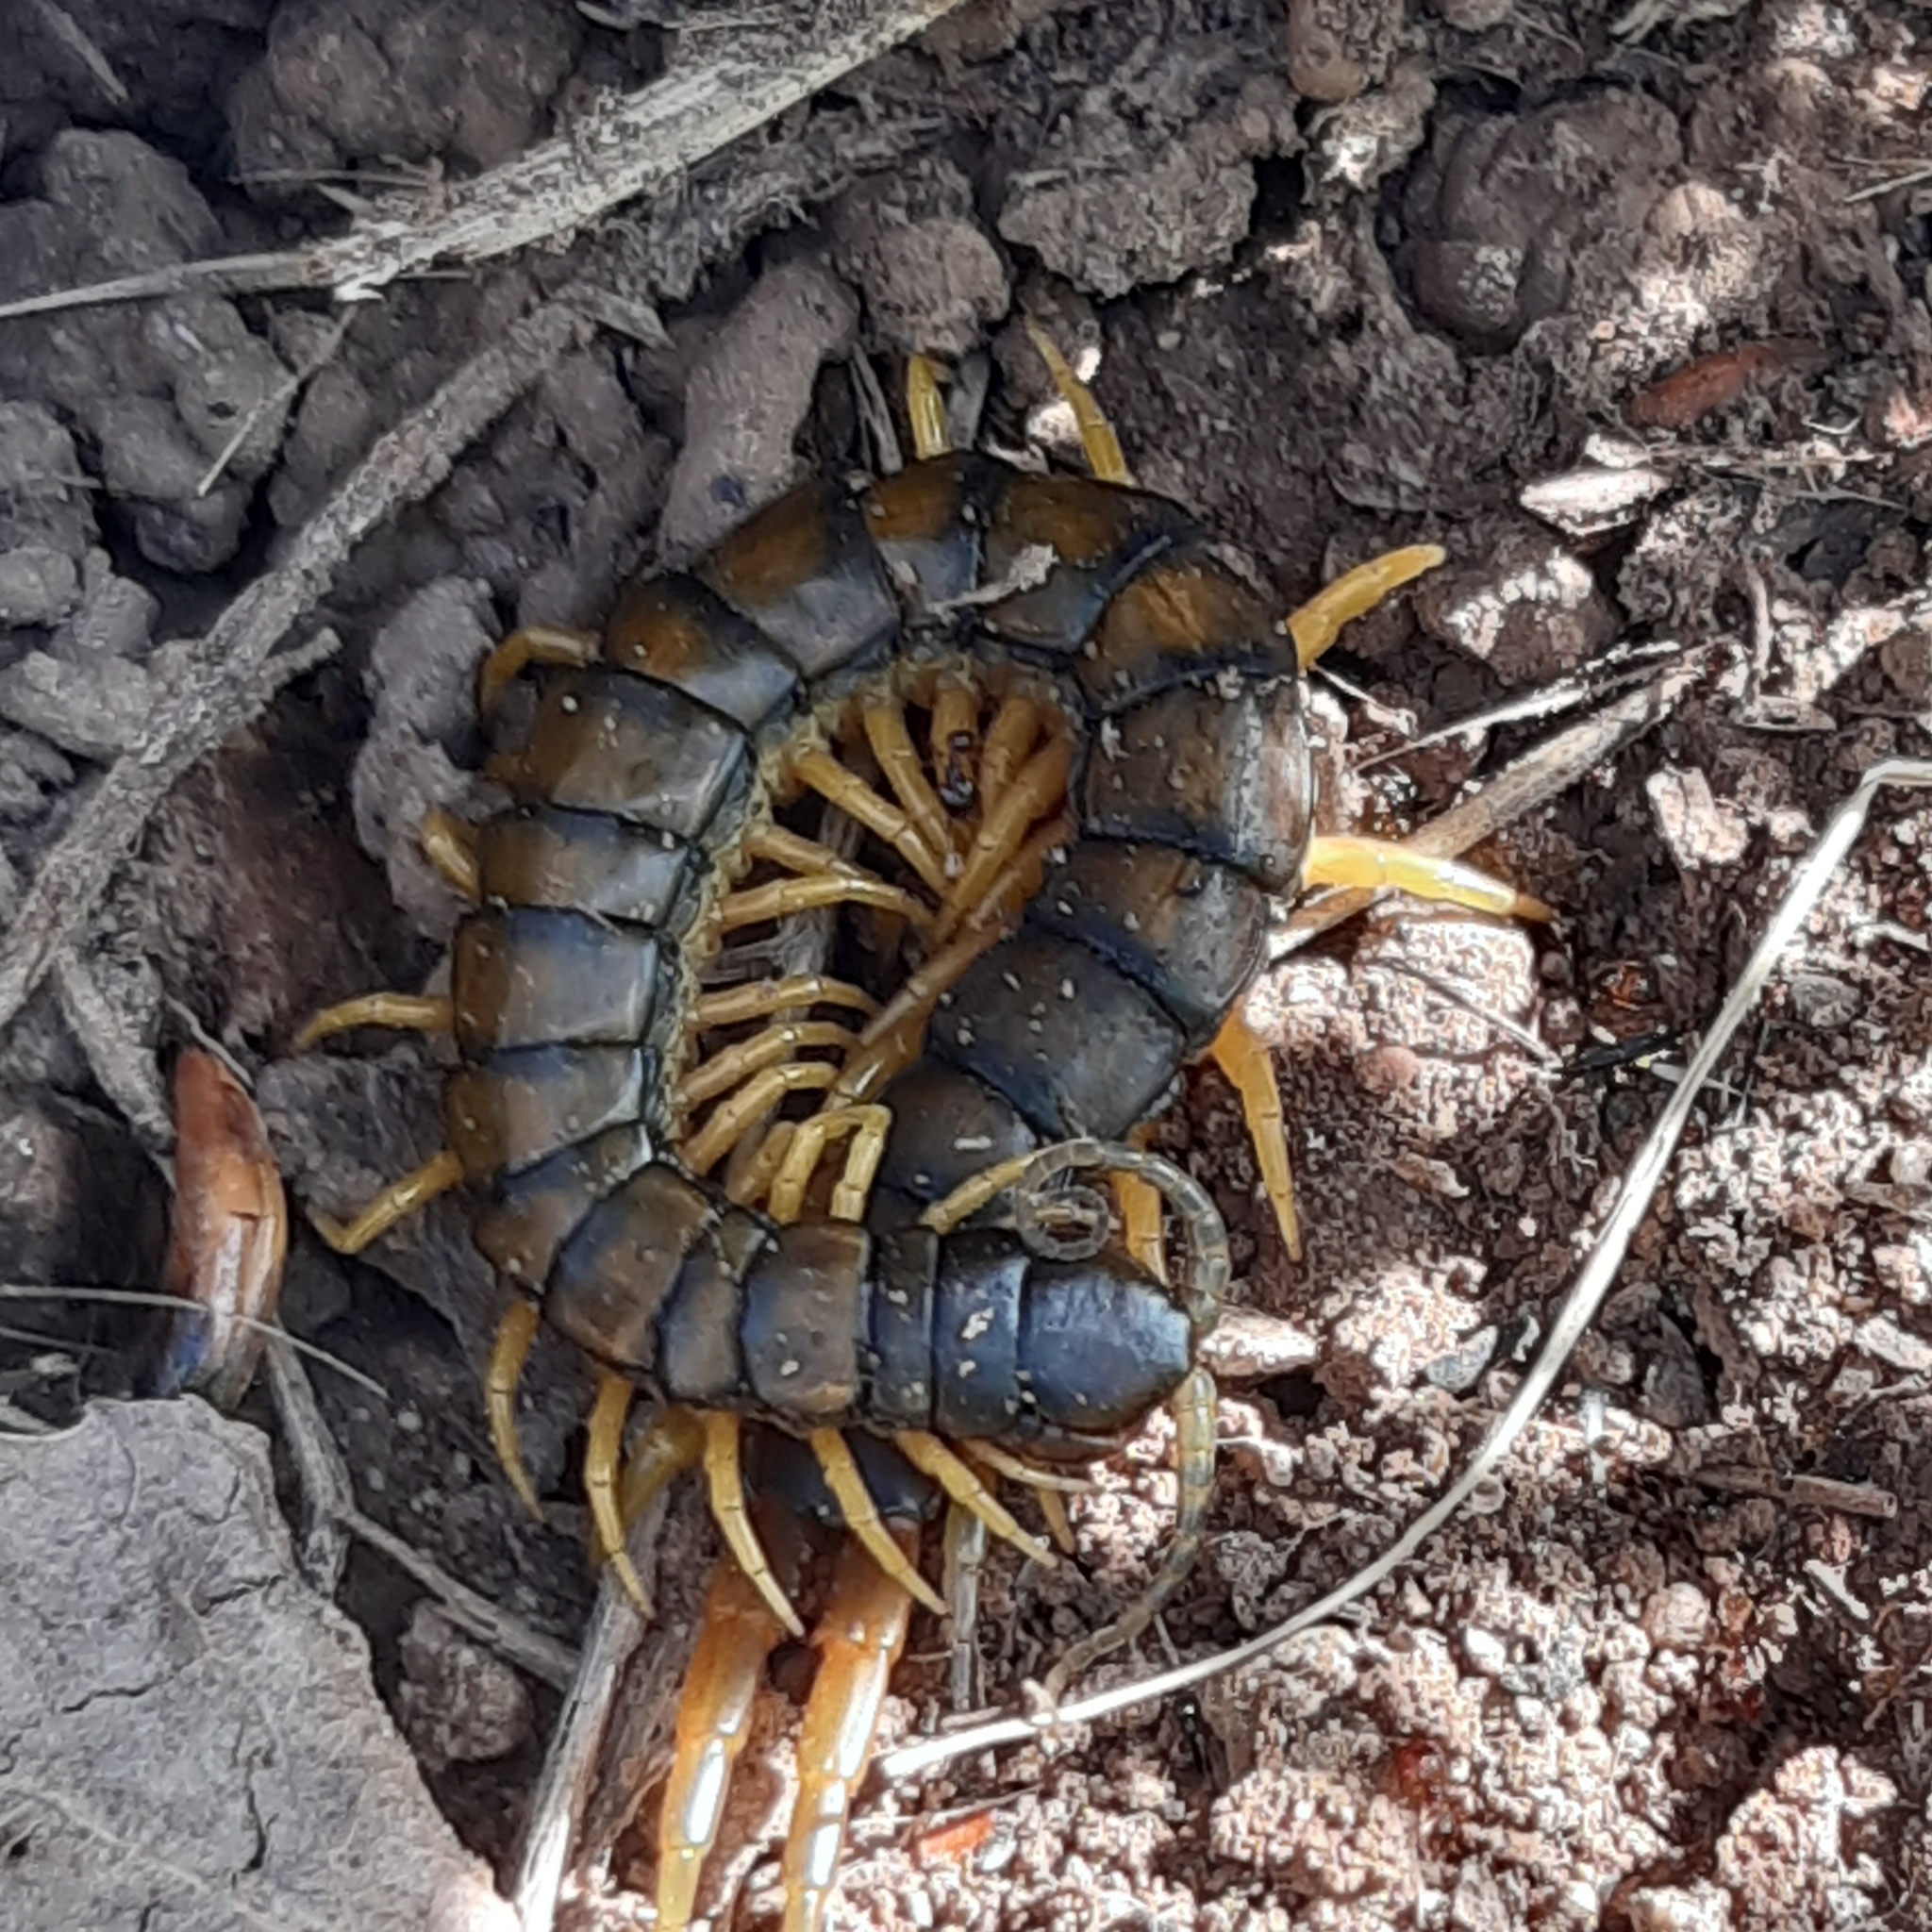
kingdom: Animalia
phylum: Arthropoda
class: Chilopoda
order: Scolopendromorpha
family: Scolopendridae
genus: Scolopendra
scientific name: Scolopendra cingulata
